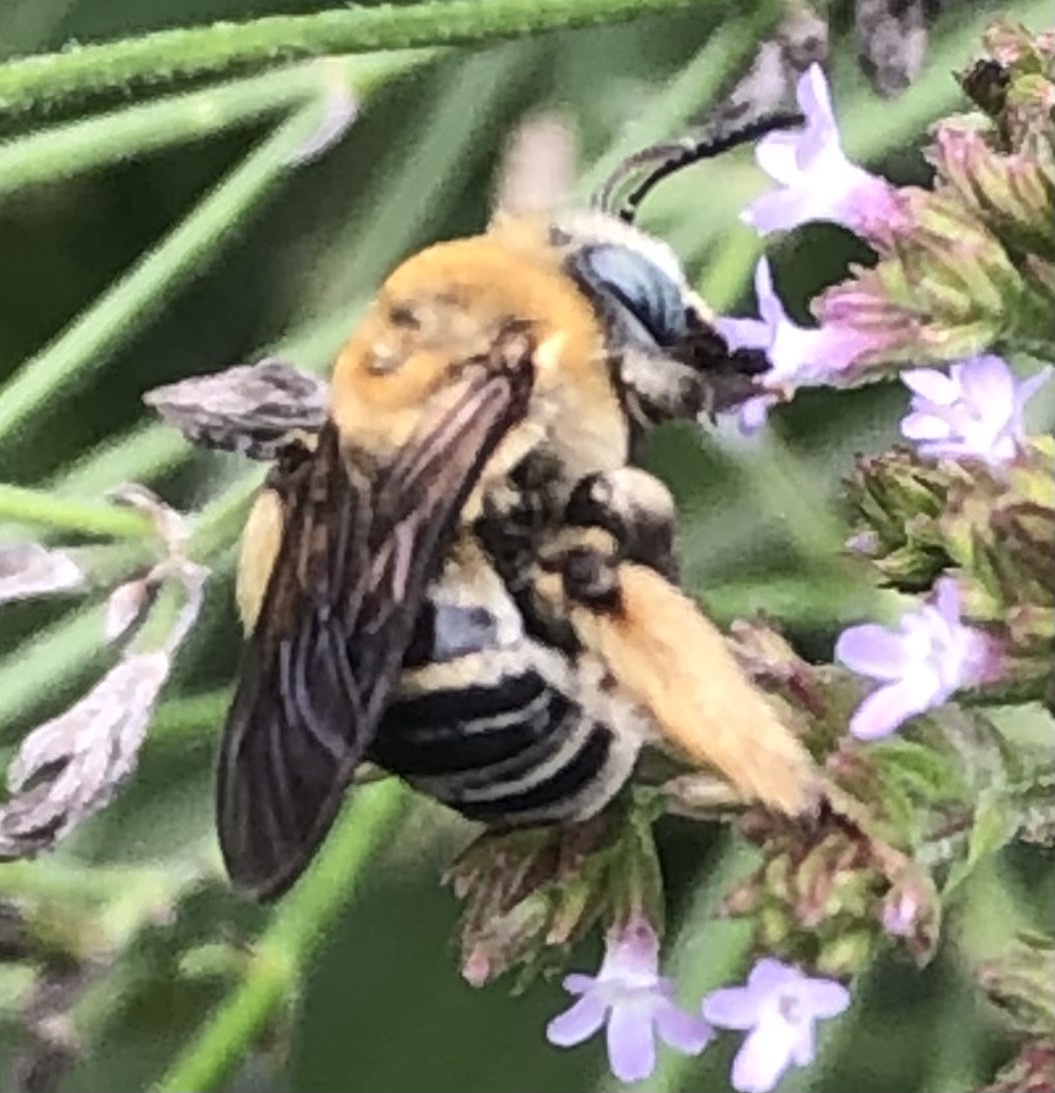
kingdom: Animalia
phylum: Arthropoda
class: Insecta
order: Hymenoptera
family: Apidae
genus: Melissodes
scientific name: Melissodes comptoides
